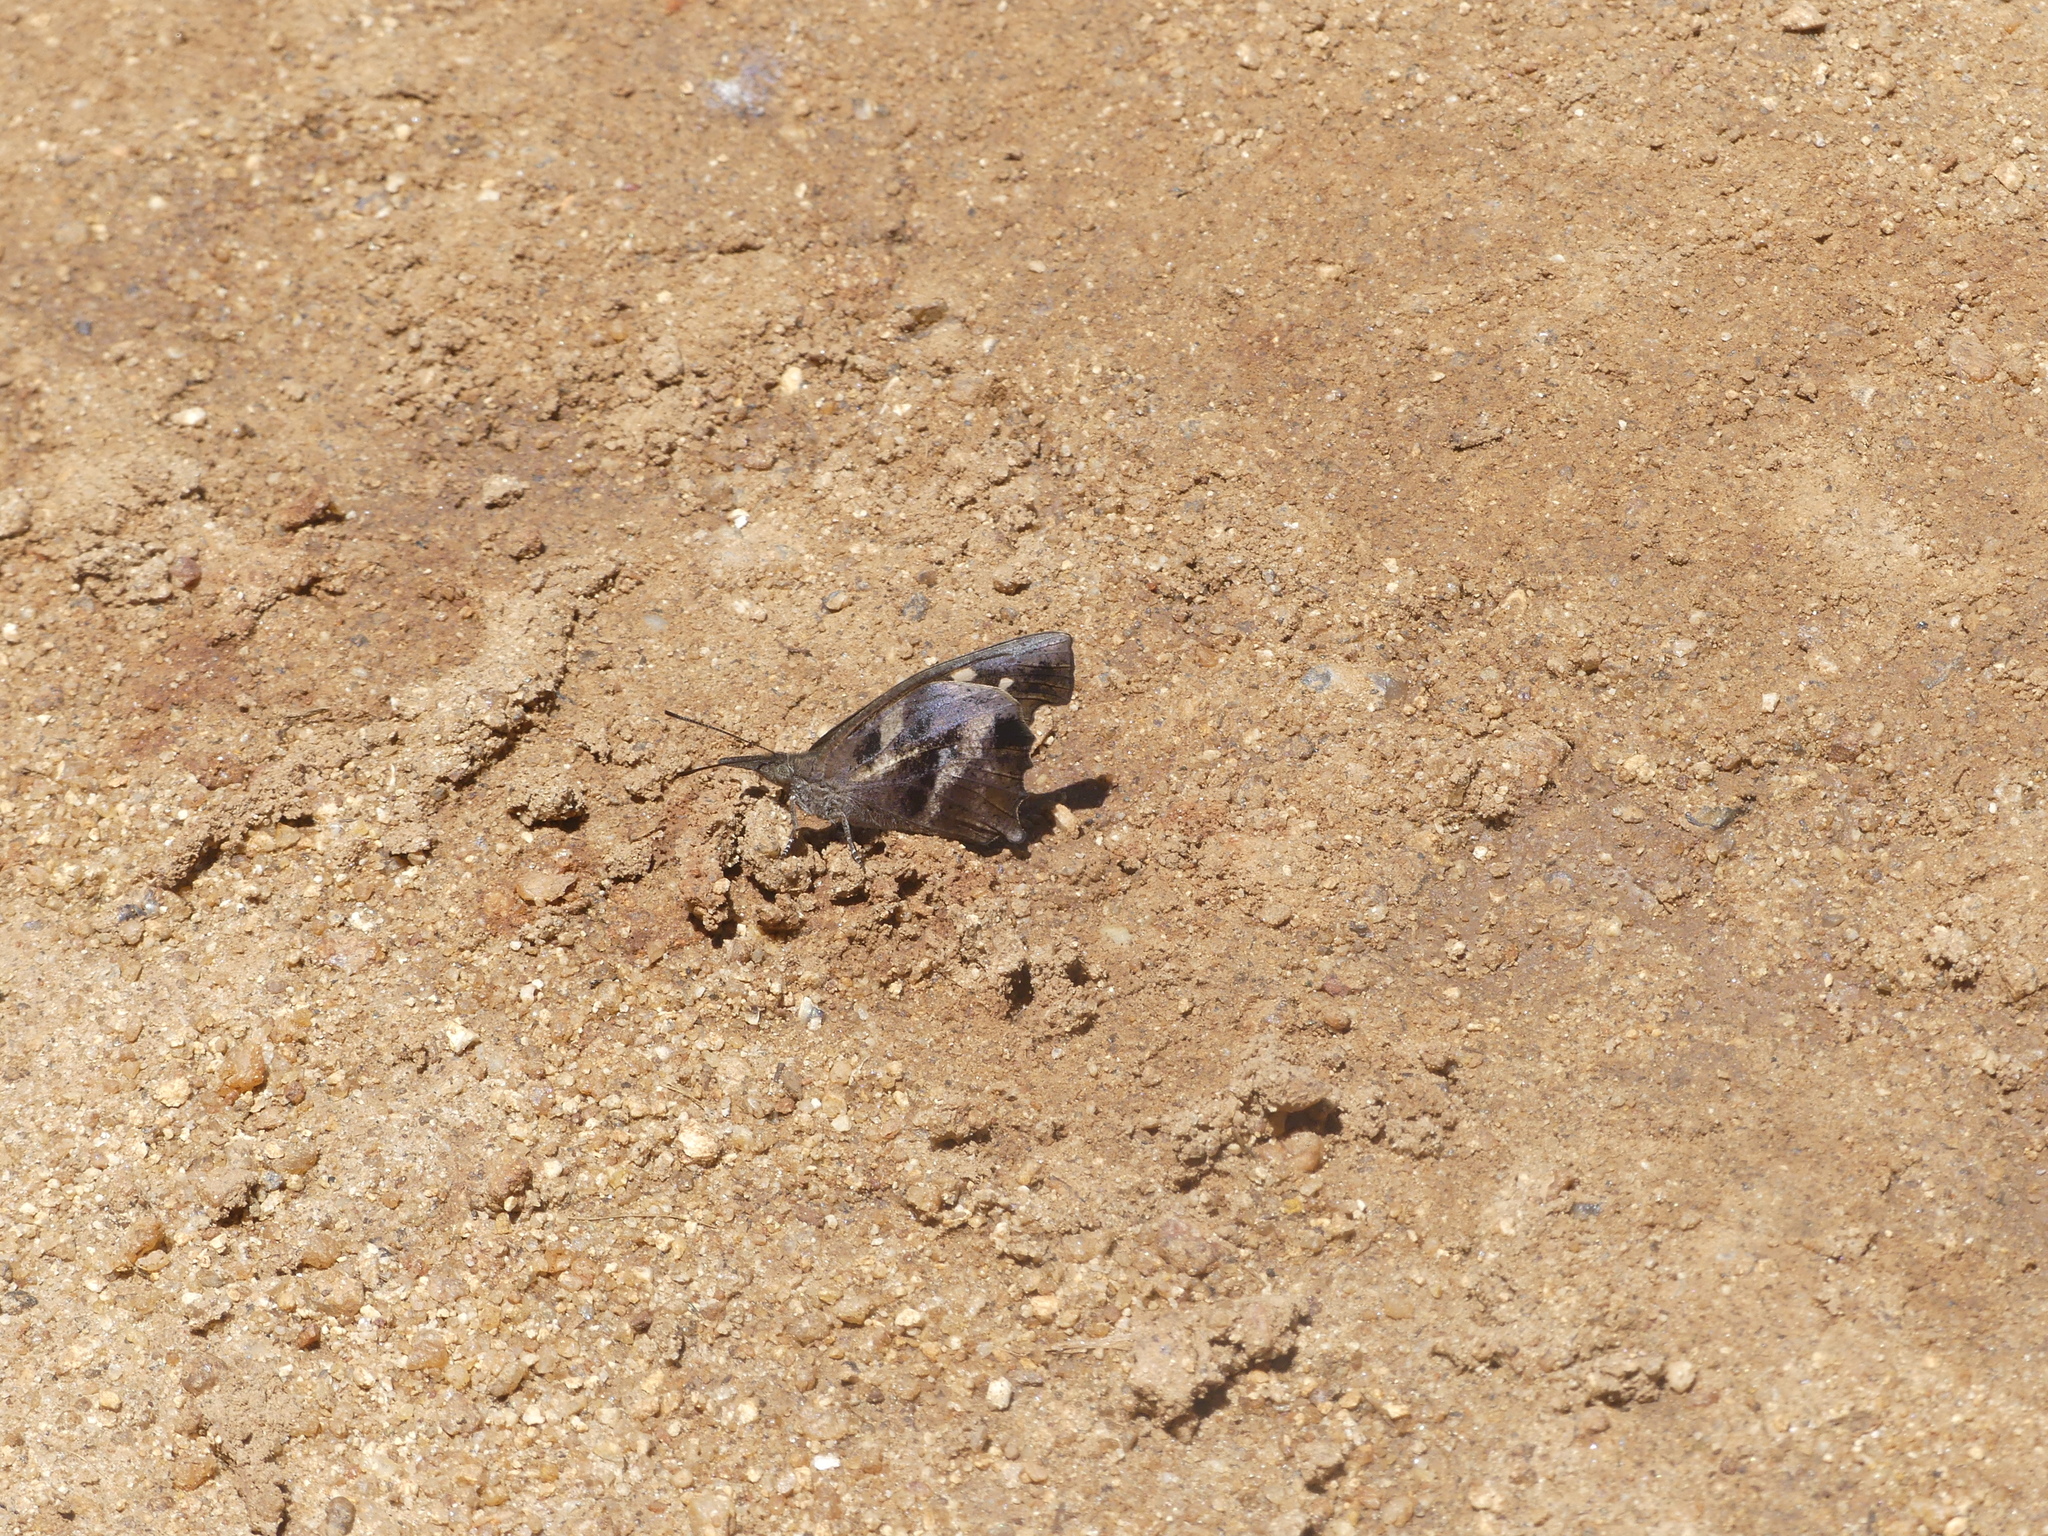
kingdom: Animalia
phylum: Arthropoda
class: Insecta
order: Lepidoptera
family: Nymphalidae
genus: Libythea
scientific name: Libythea laius
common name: African snout
